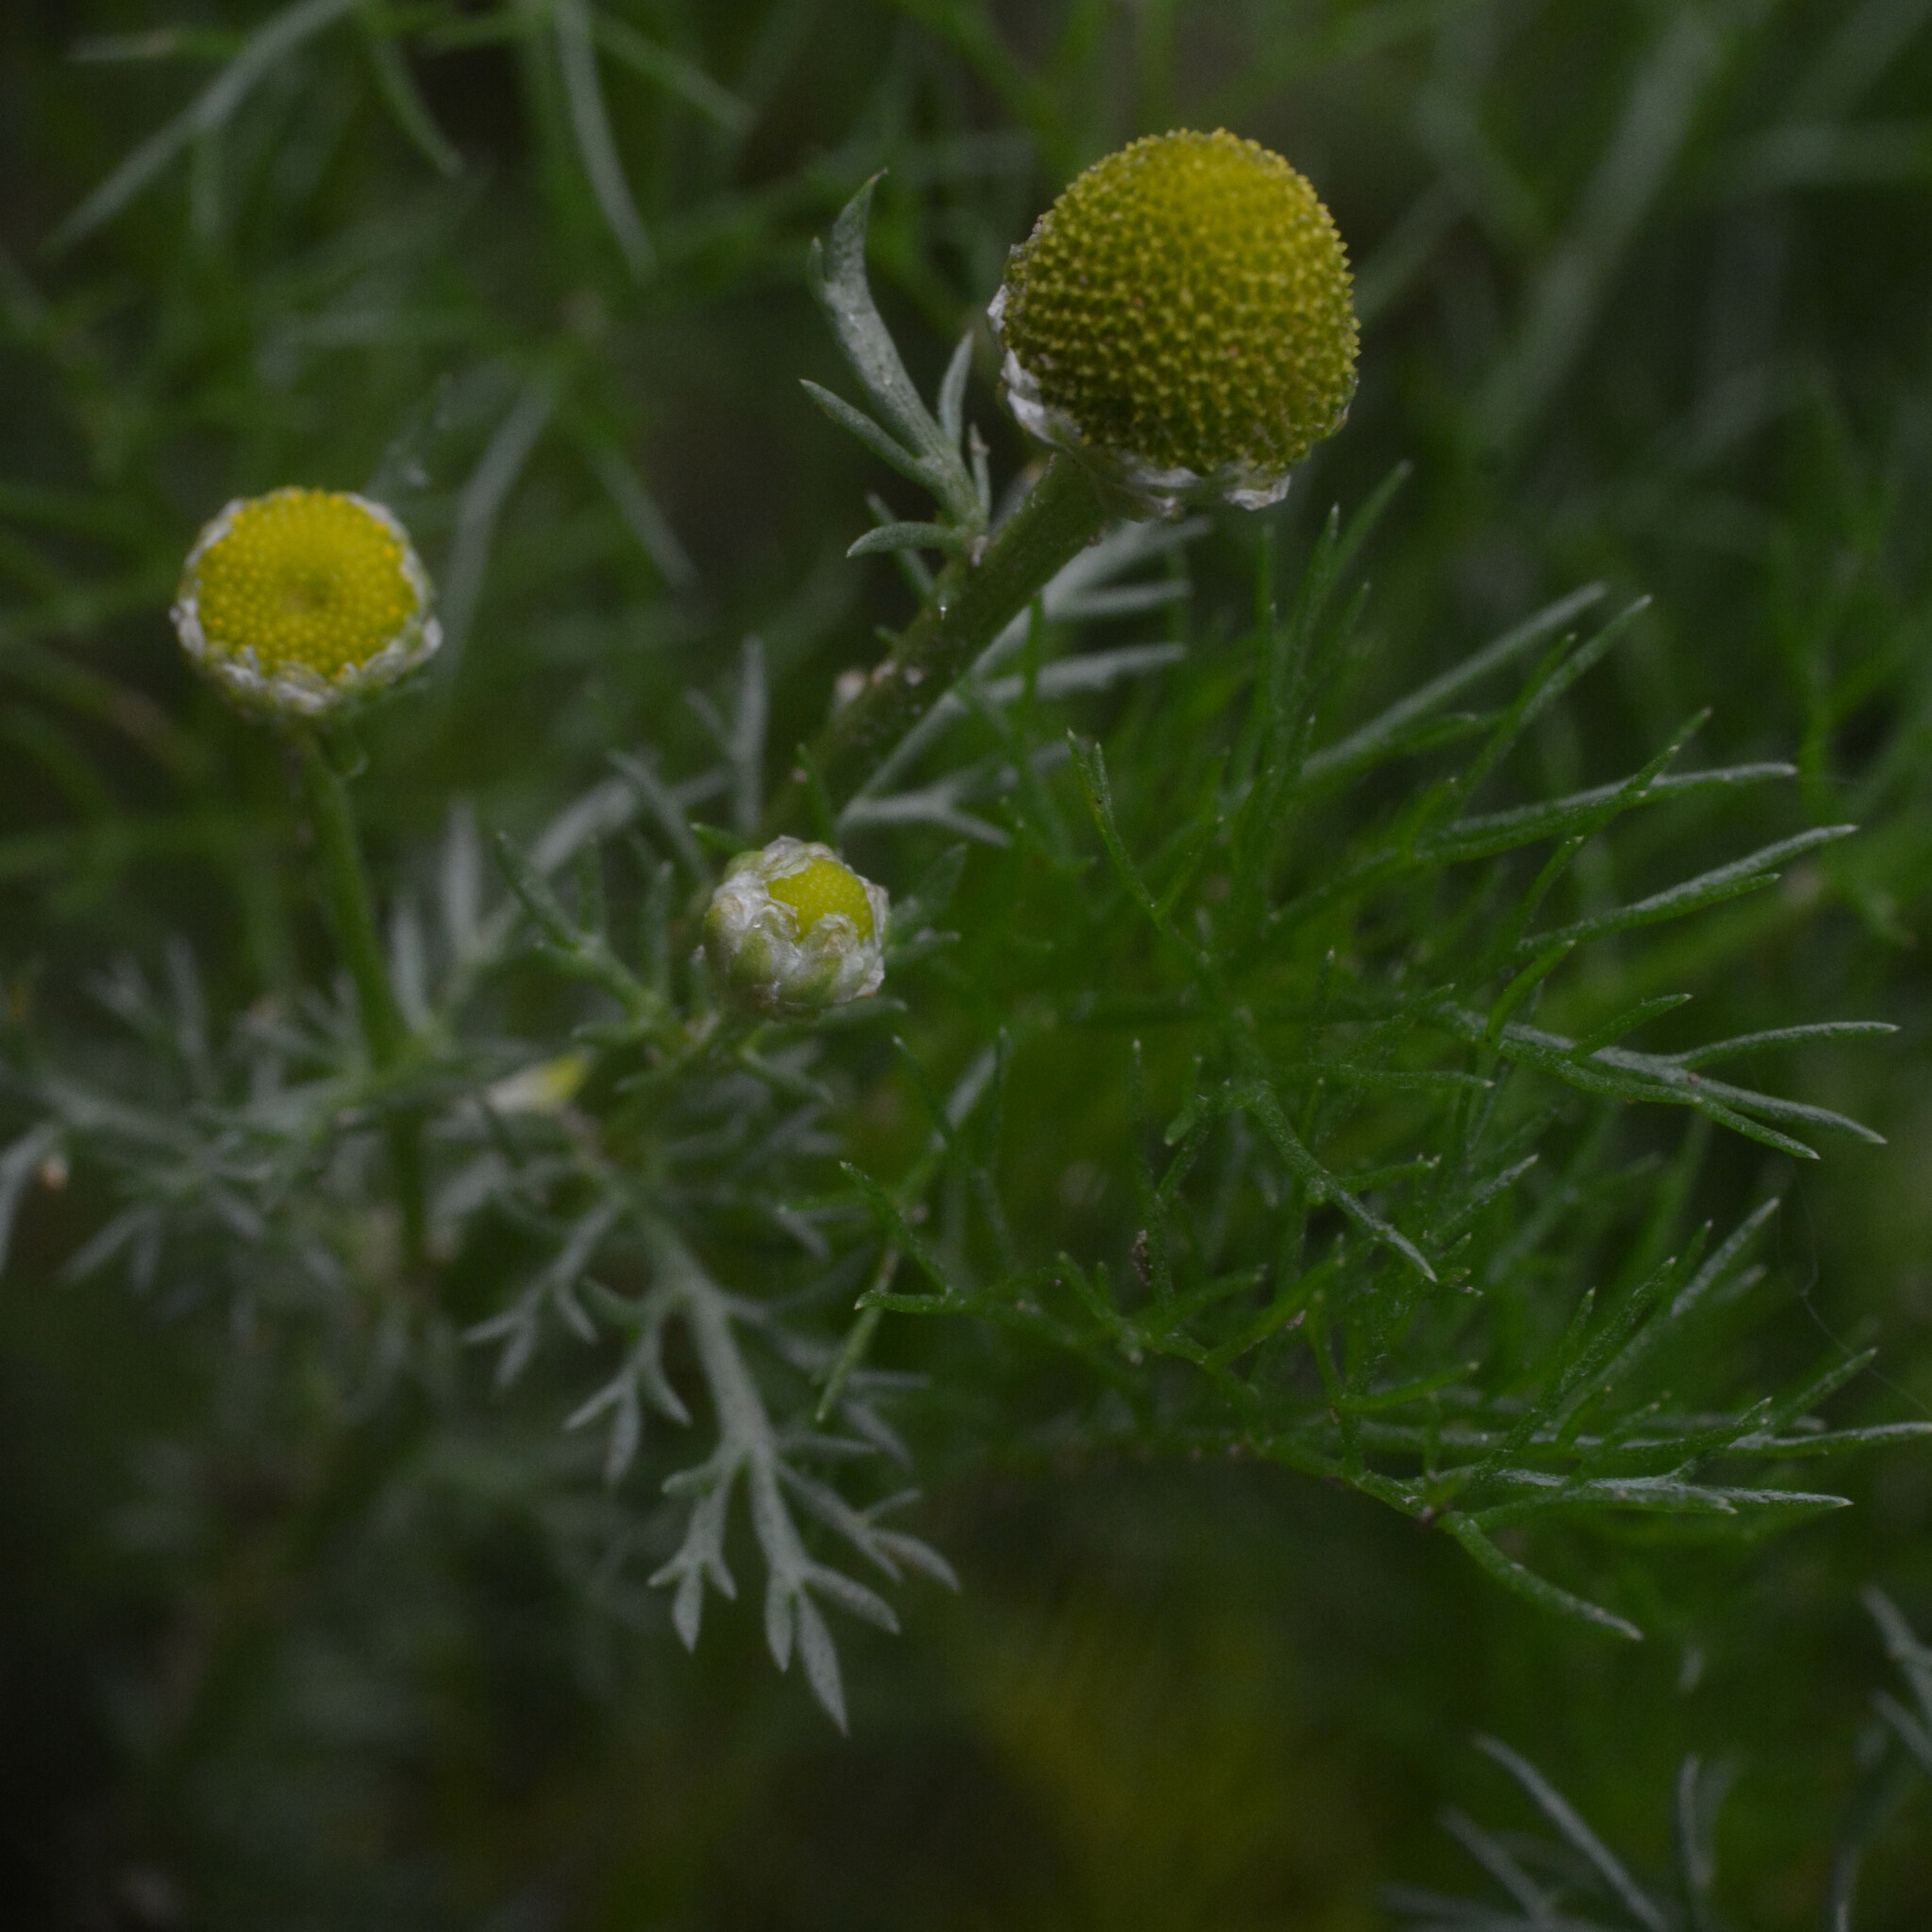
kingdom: Plantae
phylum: Tracheophyta
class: Magnoliopsida
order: Asterales
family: Asteraceae
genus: Matricaria
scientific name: Matricaria discoidea
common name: Disc mayweed
